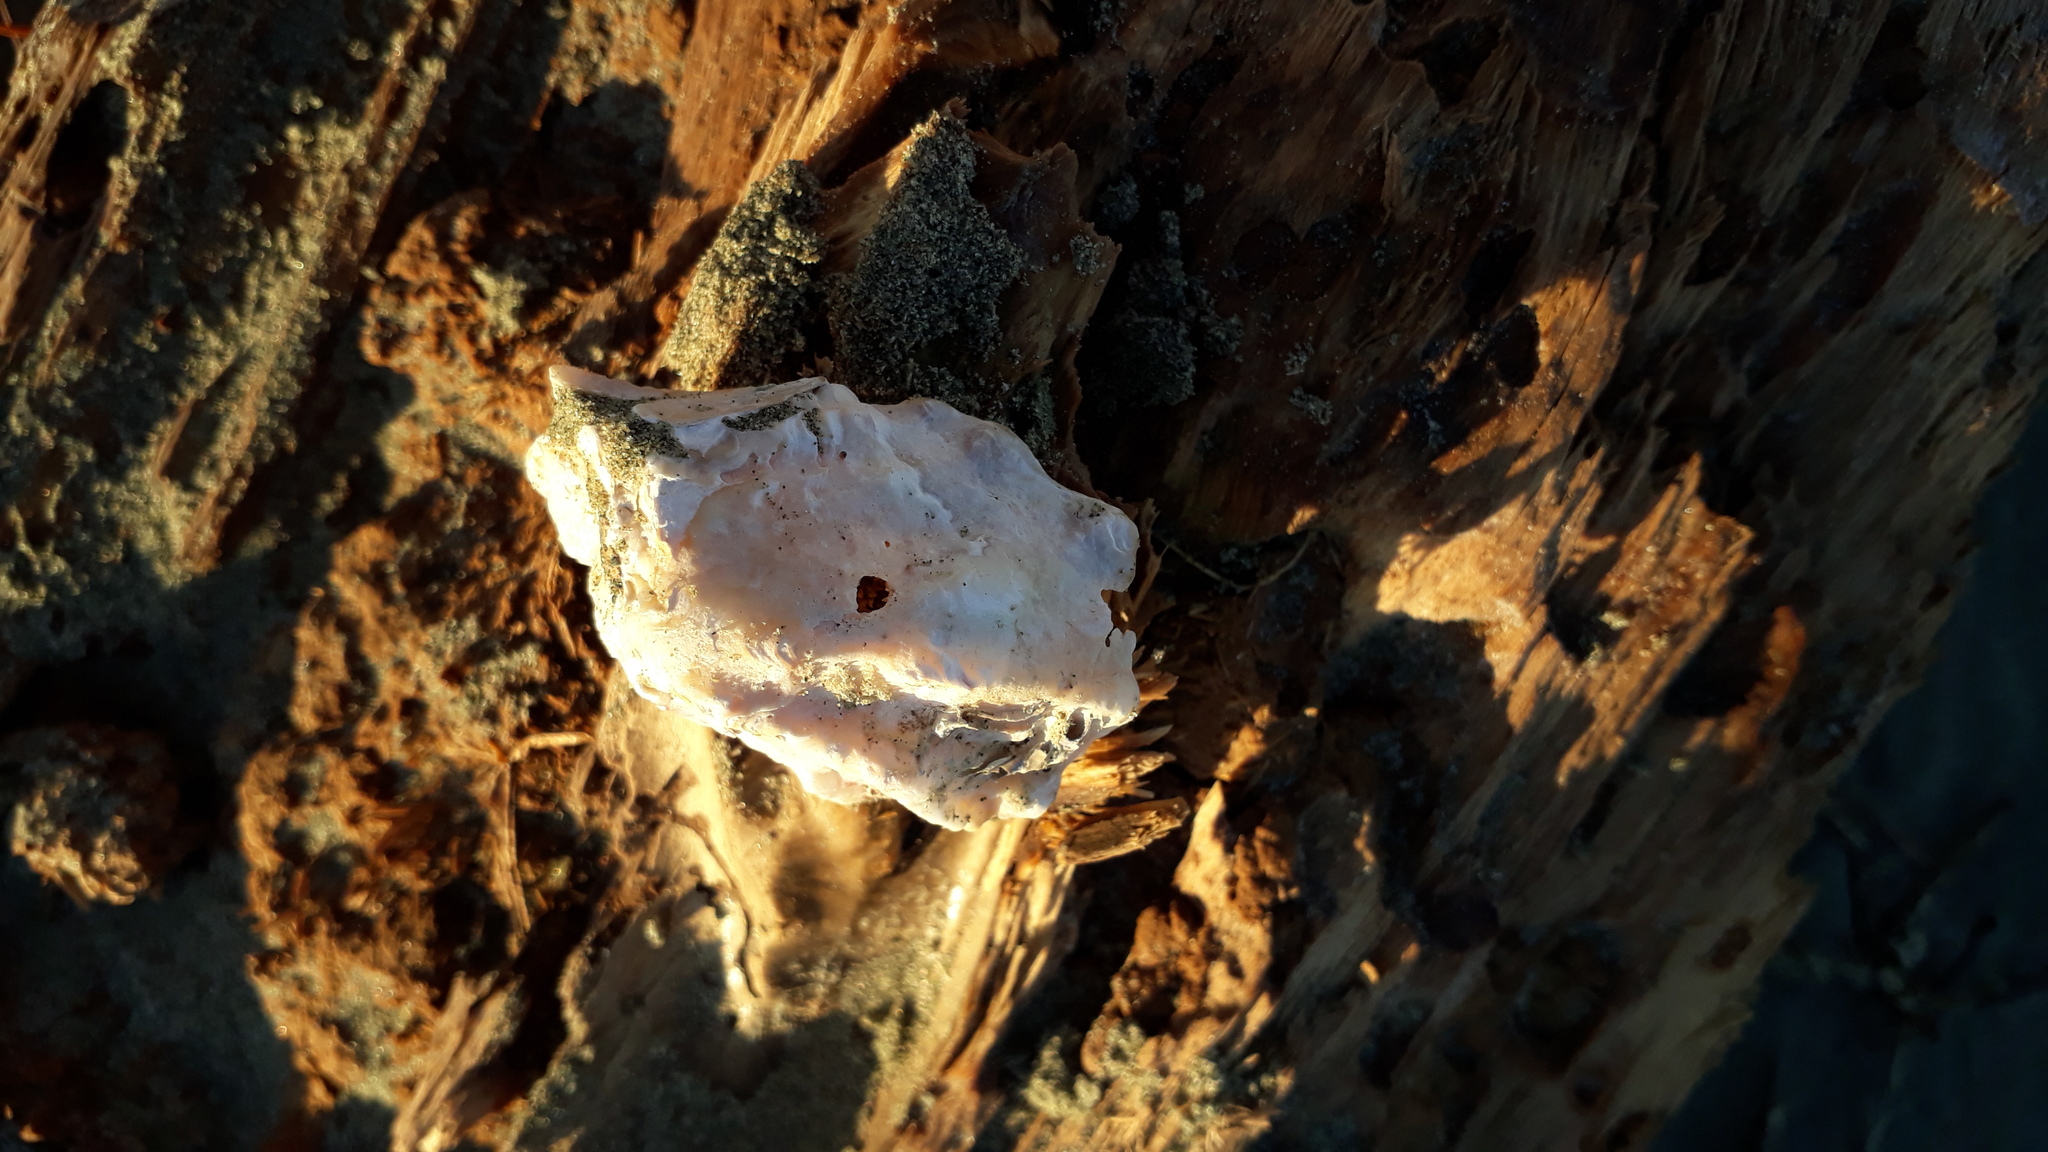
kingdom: Animalia
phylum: Mollusca
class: Bivalvia
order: Ostreida
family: Ostreidae
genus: Magallana
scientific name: Magallana gigas
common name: Pacific oyster
